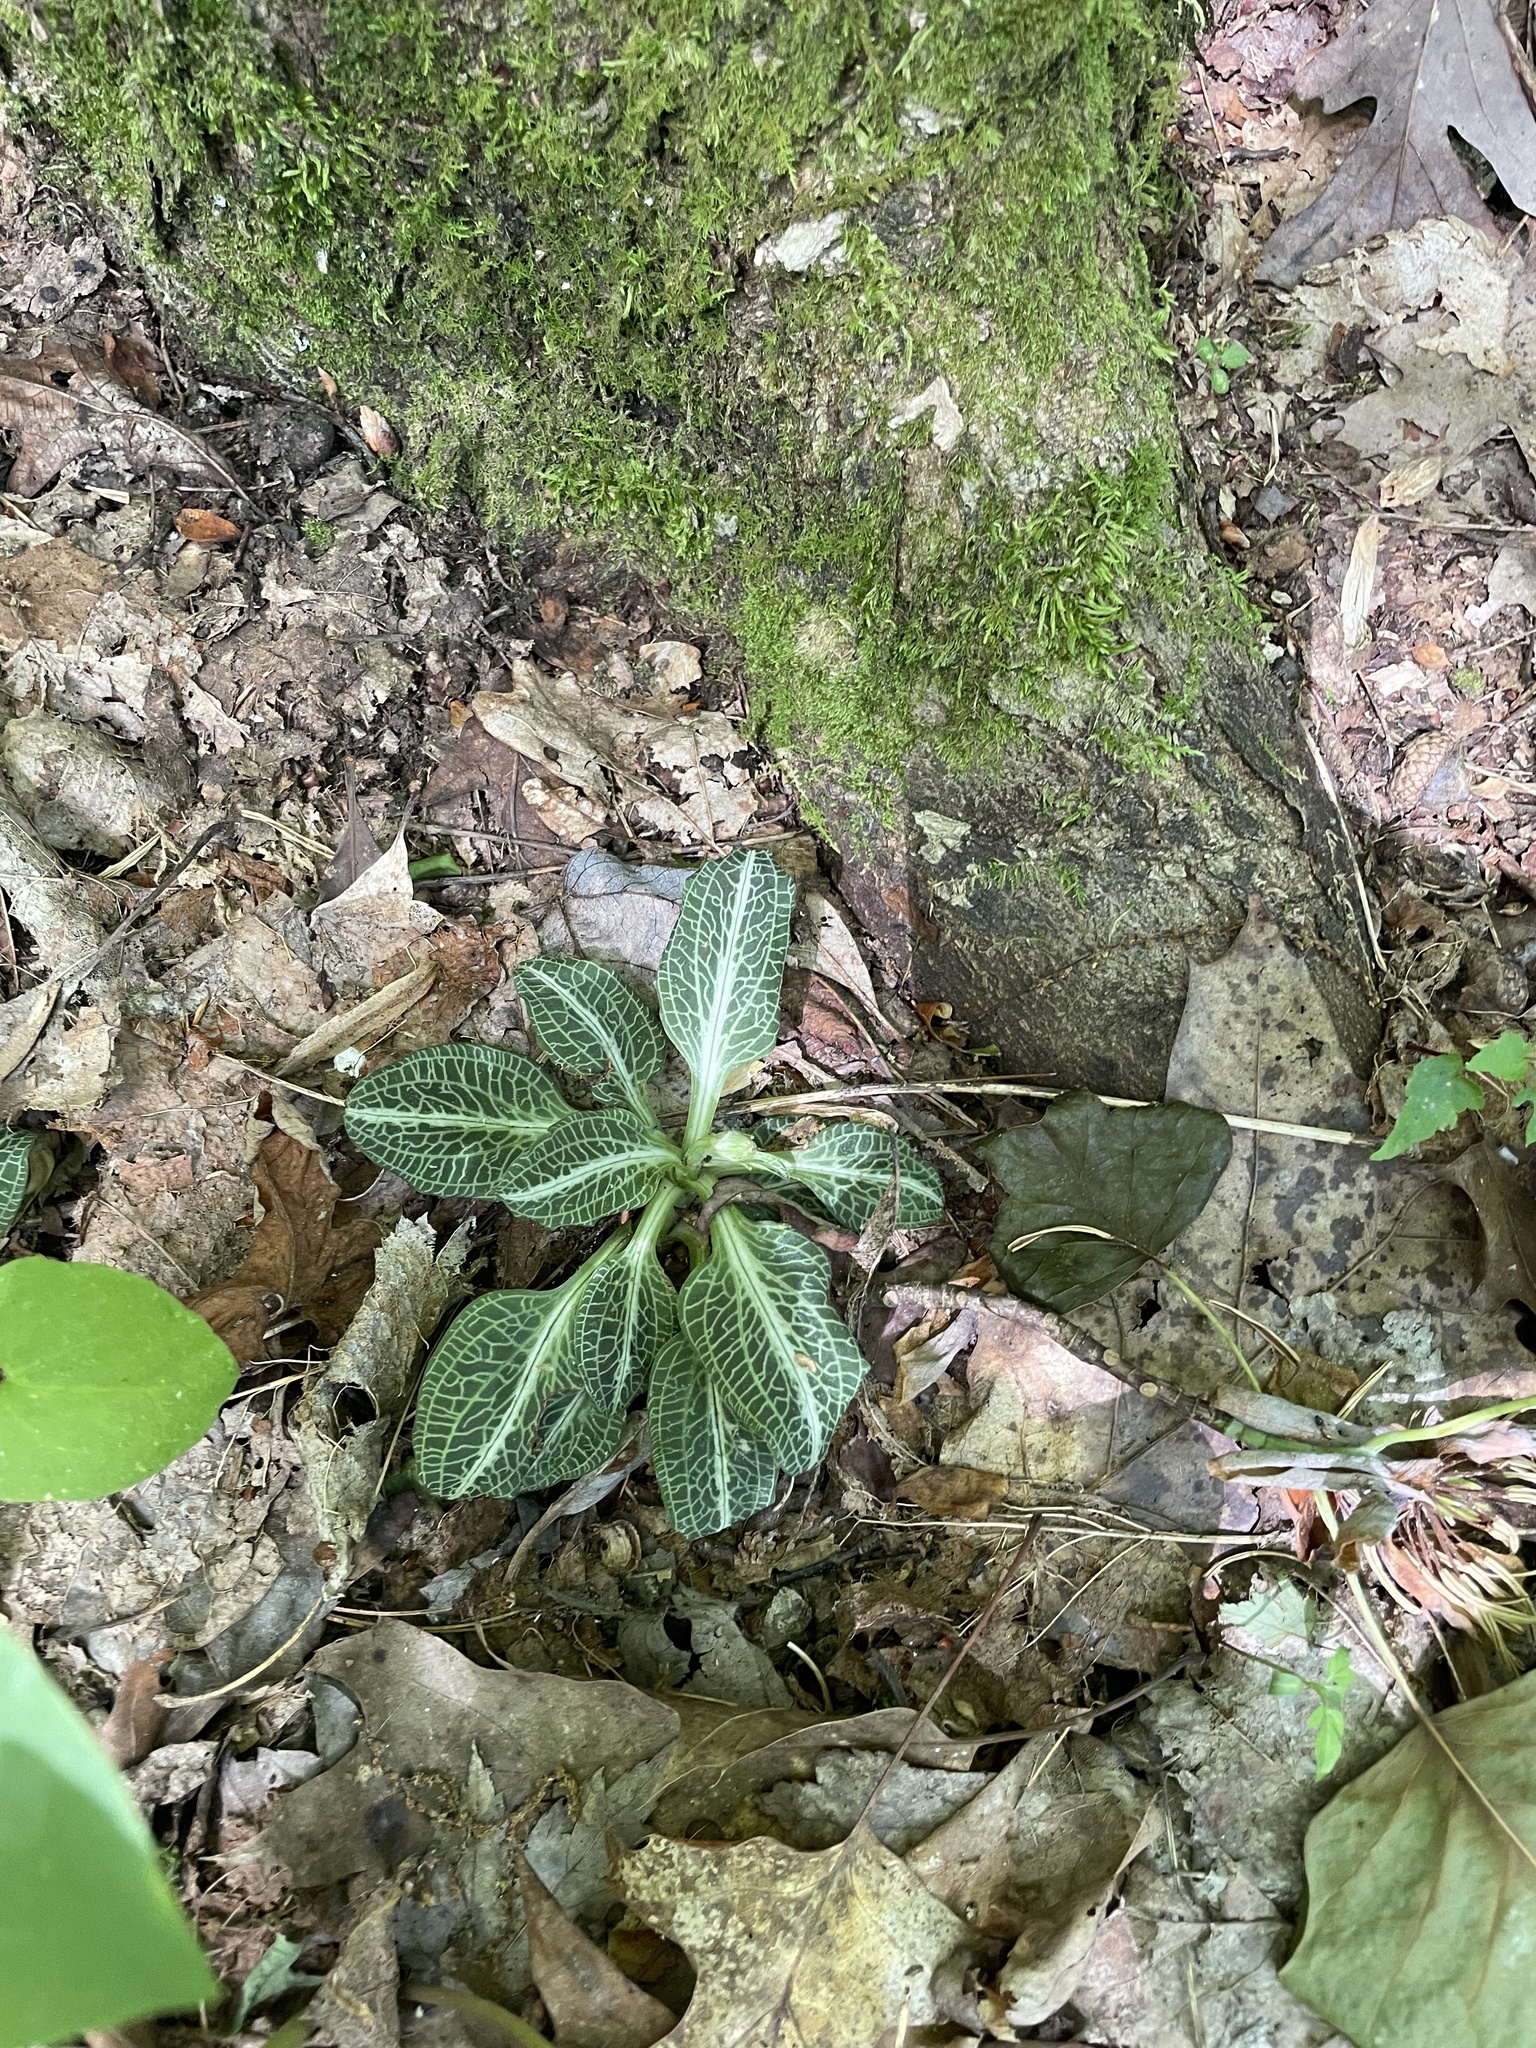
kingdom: Plantae
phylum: Tracheophyta
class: Liliopsida
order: Asparagales
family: Orchidaceae
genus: Goodyera
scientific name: Goodyera pubescens
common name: Downy rattlesnake-plantain
